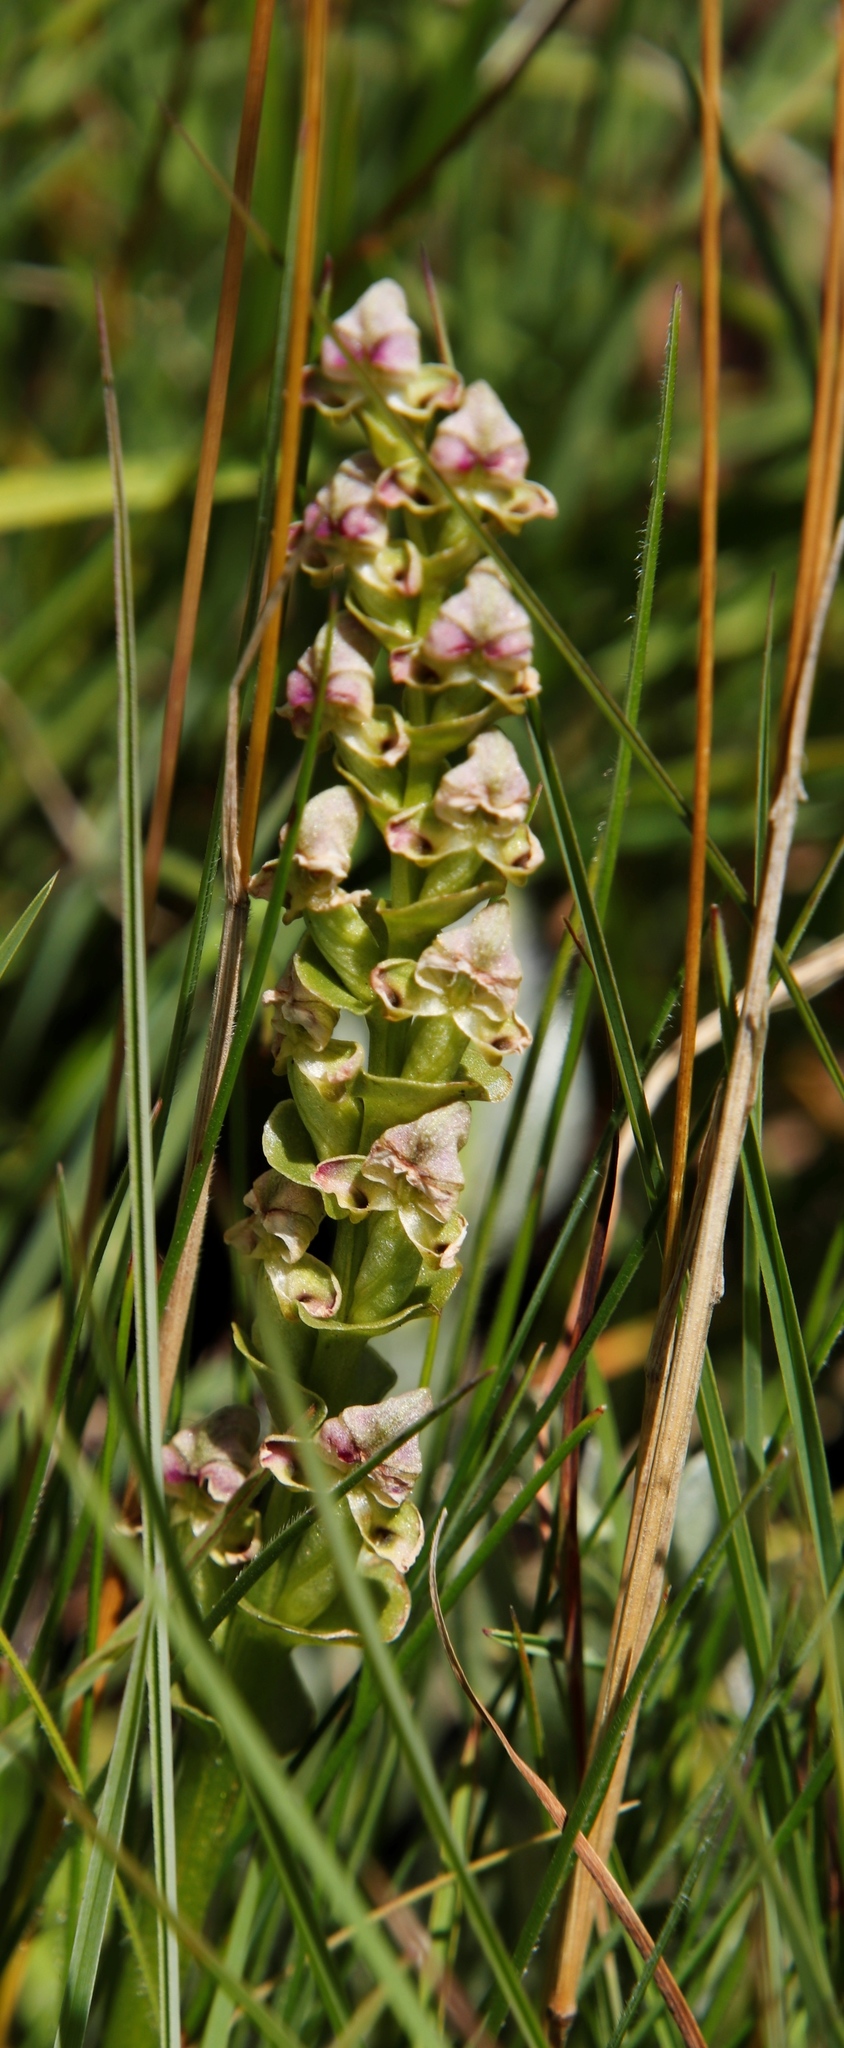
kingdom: Plantae
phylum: Tracheophyta
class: Liliopsida
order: Asparagales
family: Orchidaceae
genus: Disperis
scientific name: Disperis cardiophora
